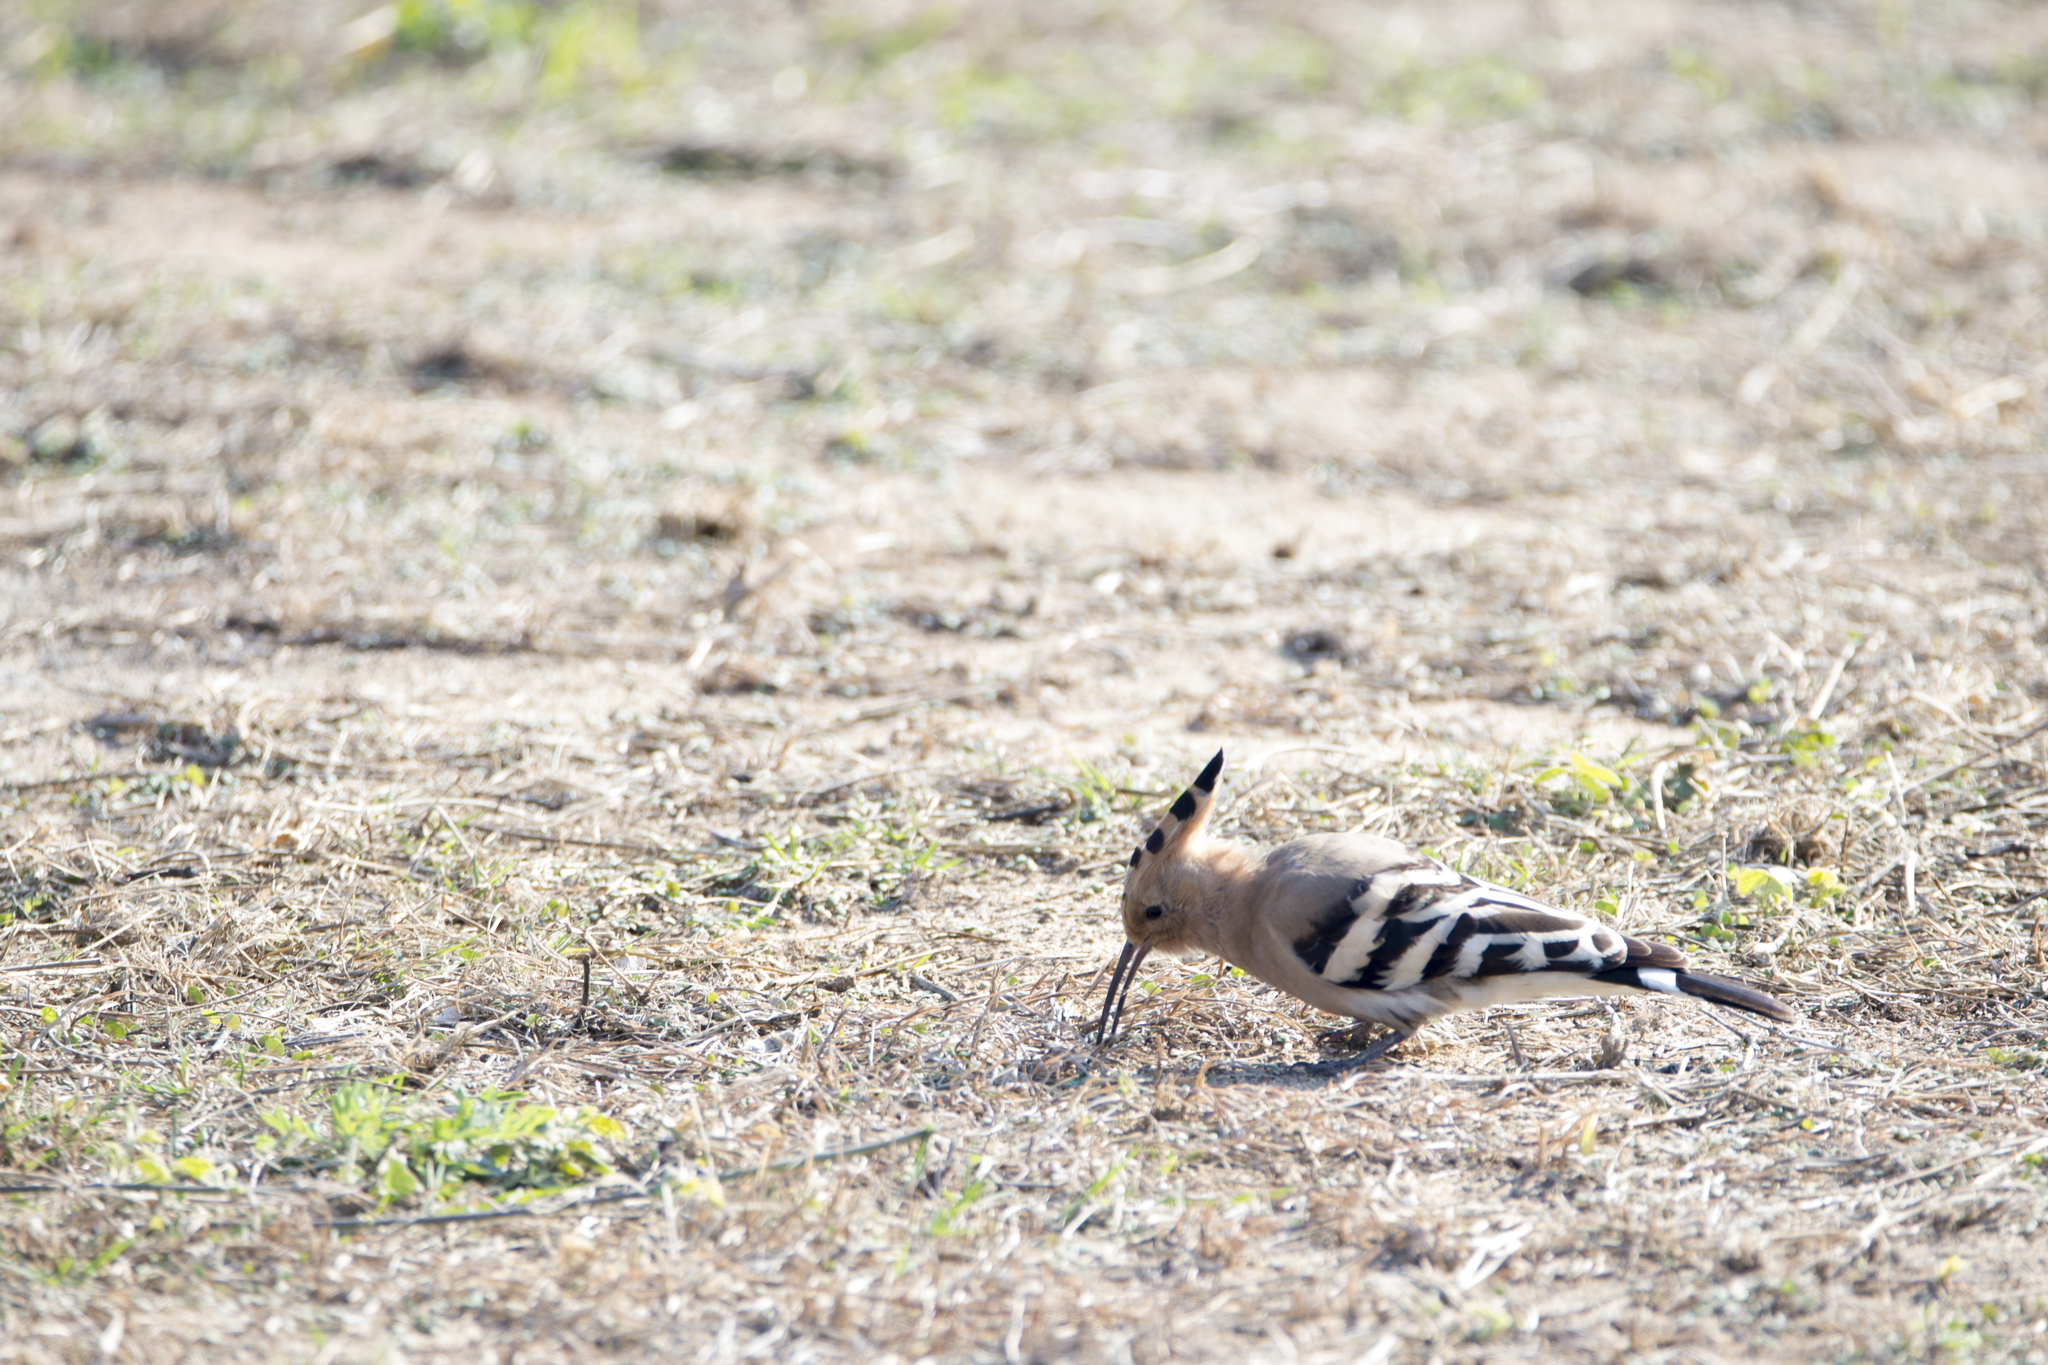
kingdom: Animalia
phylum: Chordata
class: Aves
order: Bucerotiformes
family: Upupidae
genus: Upupa
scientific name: Upupa epops
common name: Eurasian hoopoe
